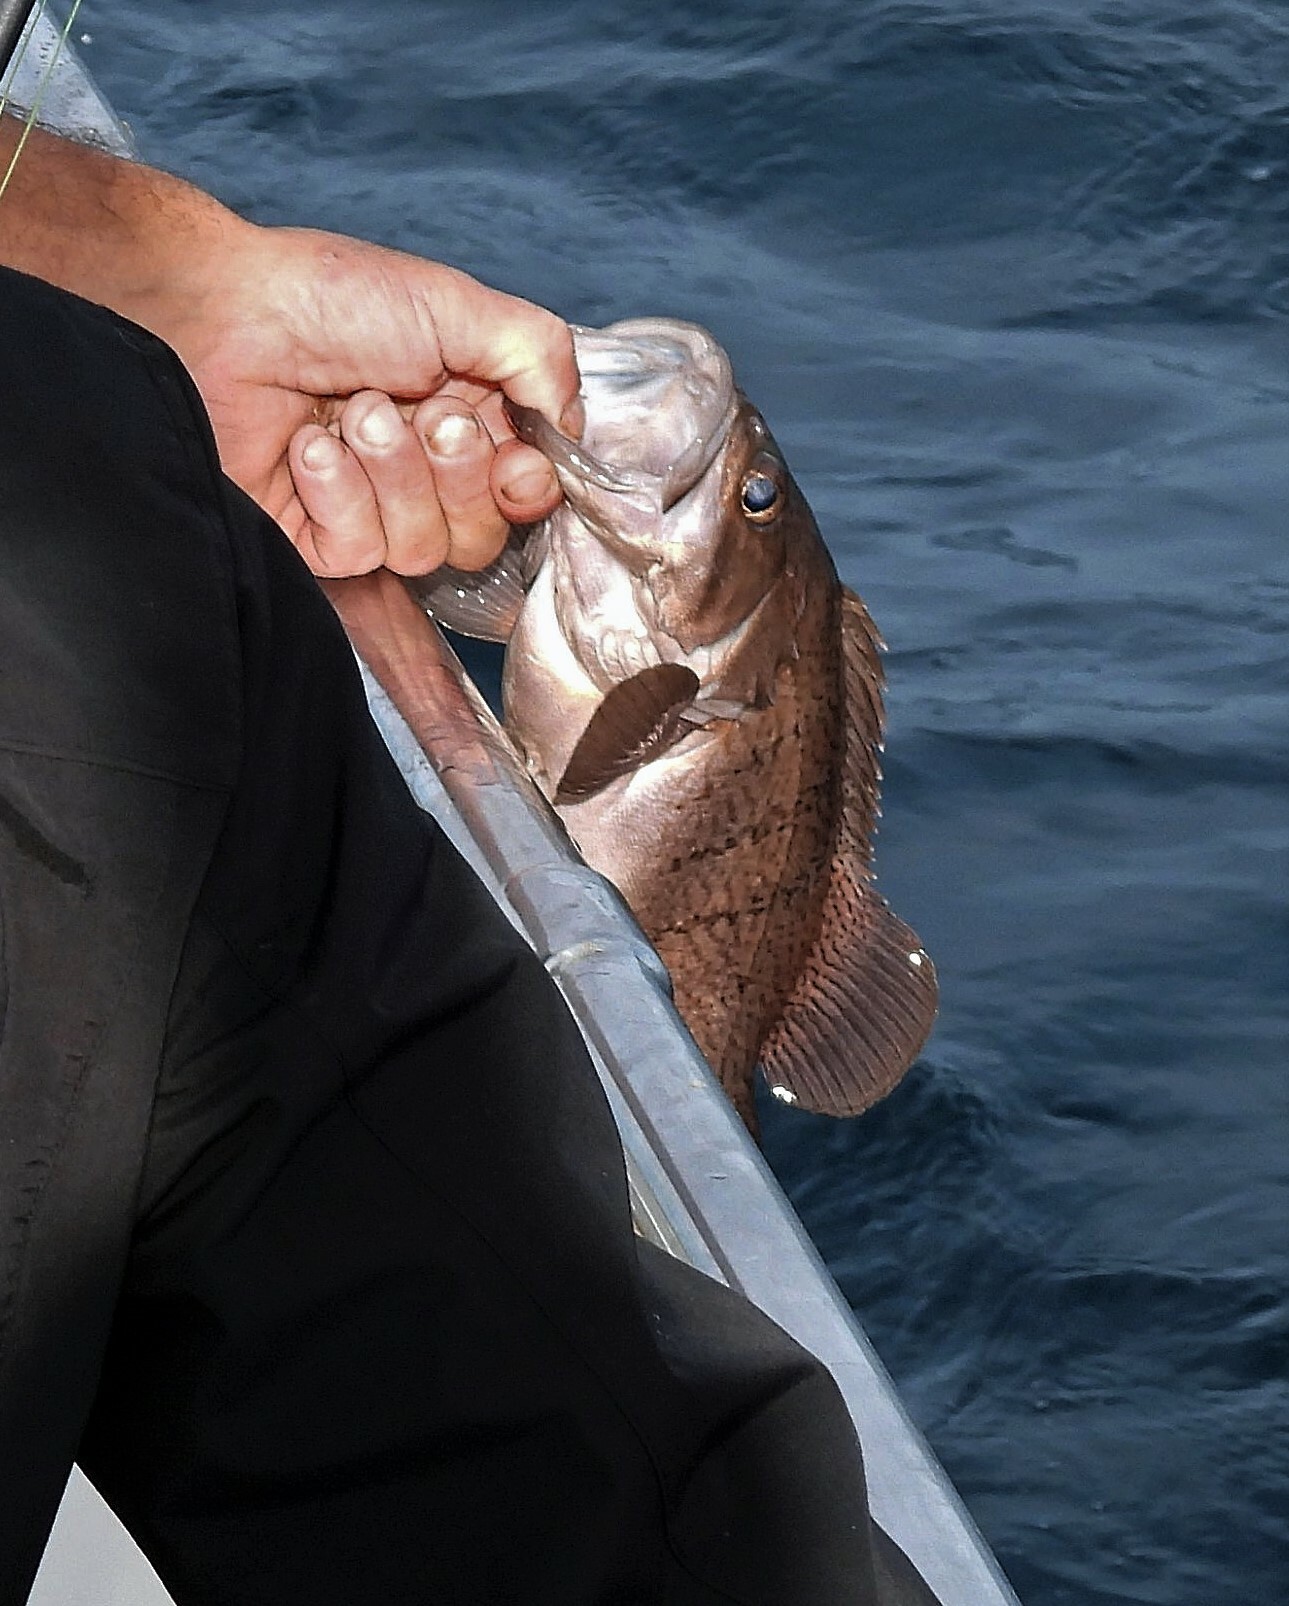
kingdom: Animalia
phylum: Chordata
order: Perciformes
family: Serranidae
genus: Acanthistius
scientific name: Acanthistius patachonicus
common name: Patagonian grouper
